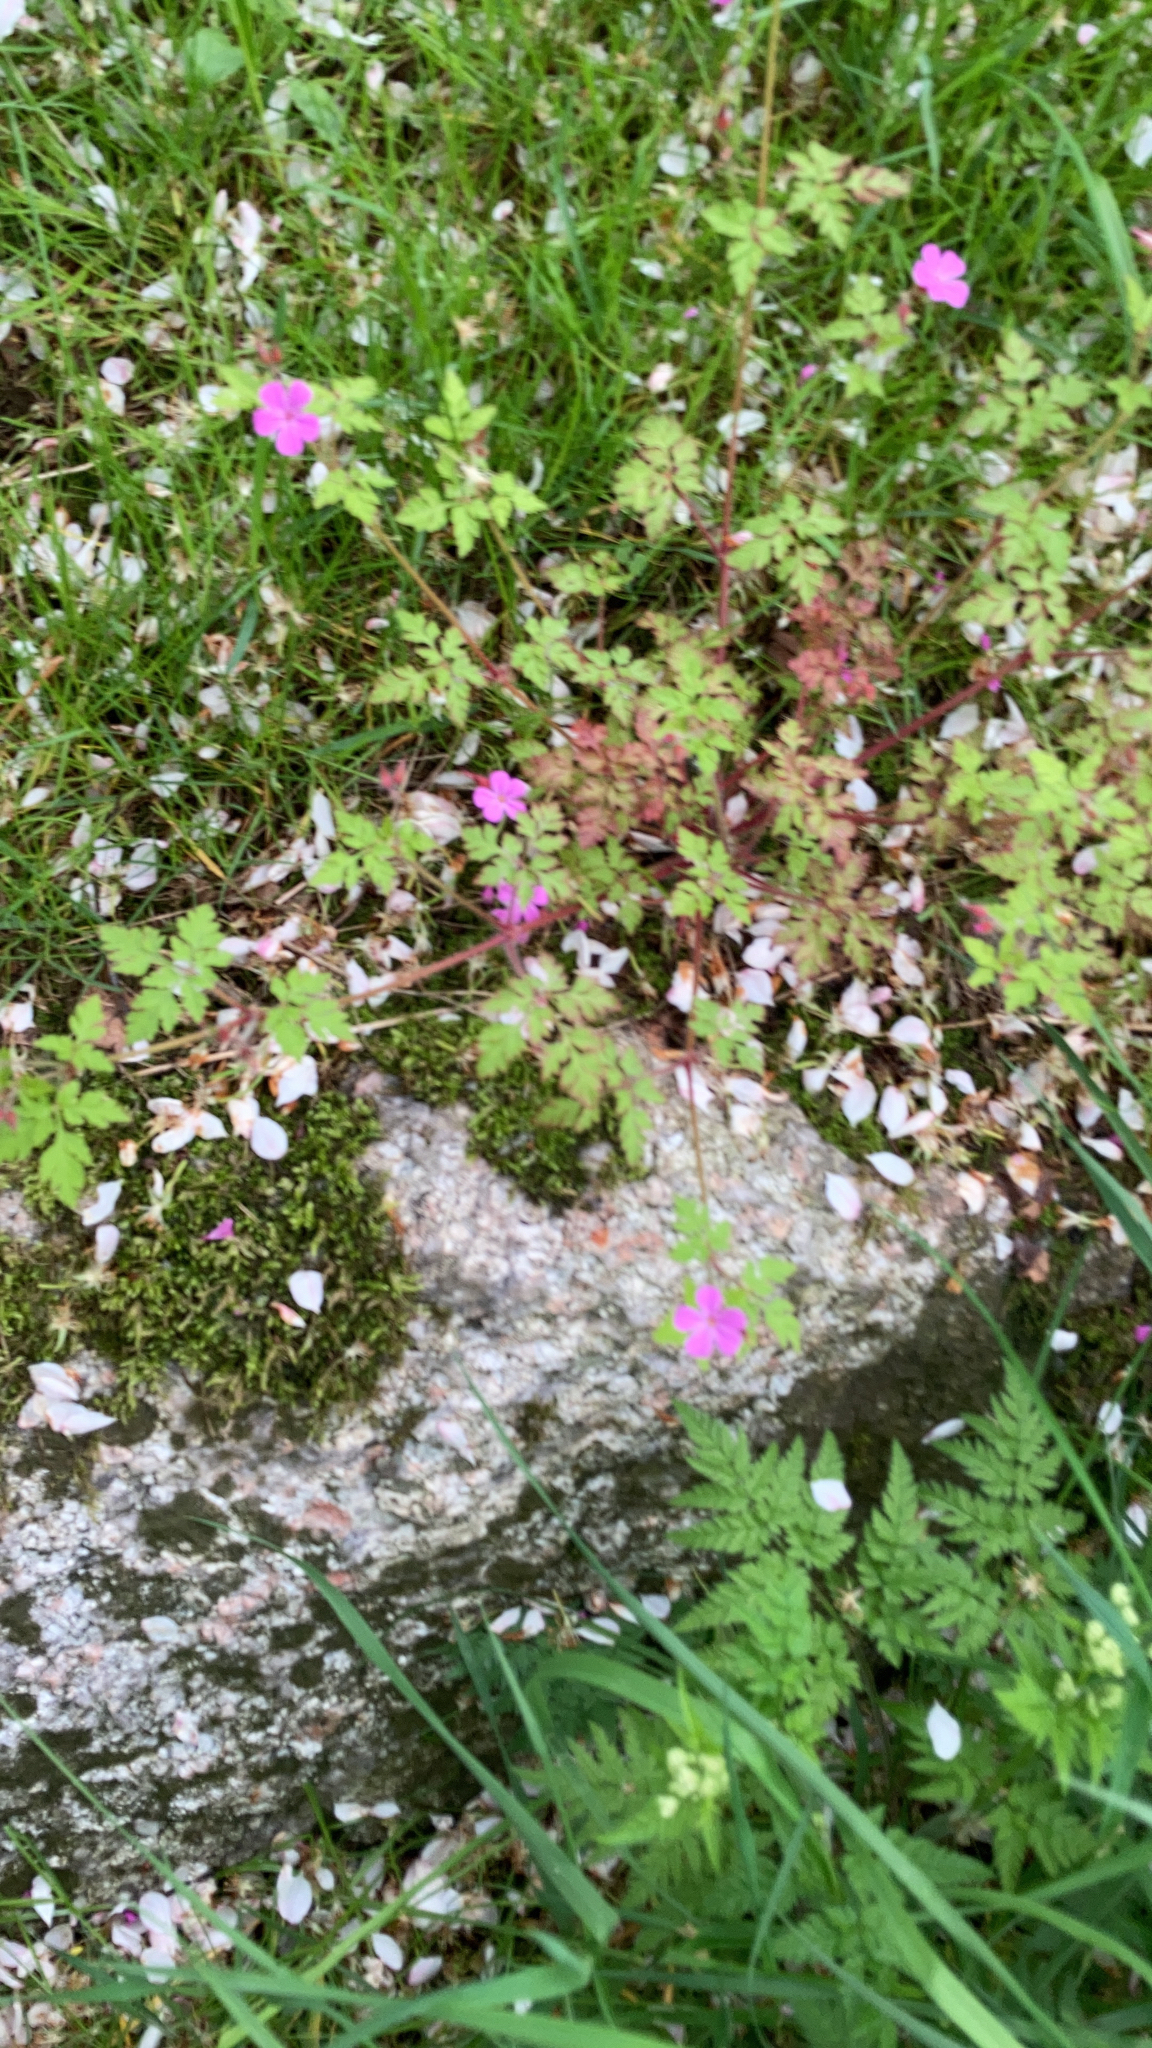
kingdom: Plantae
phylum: Tracheophyta
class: Magnoliopsida
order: Geraniales
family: Geraniaceae
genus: Geranium
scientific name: Geranium robertianum
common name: Herb-robert
